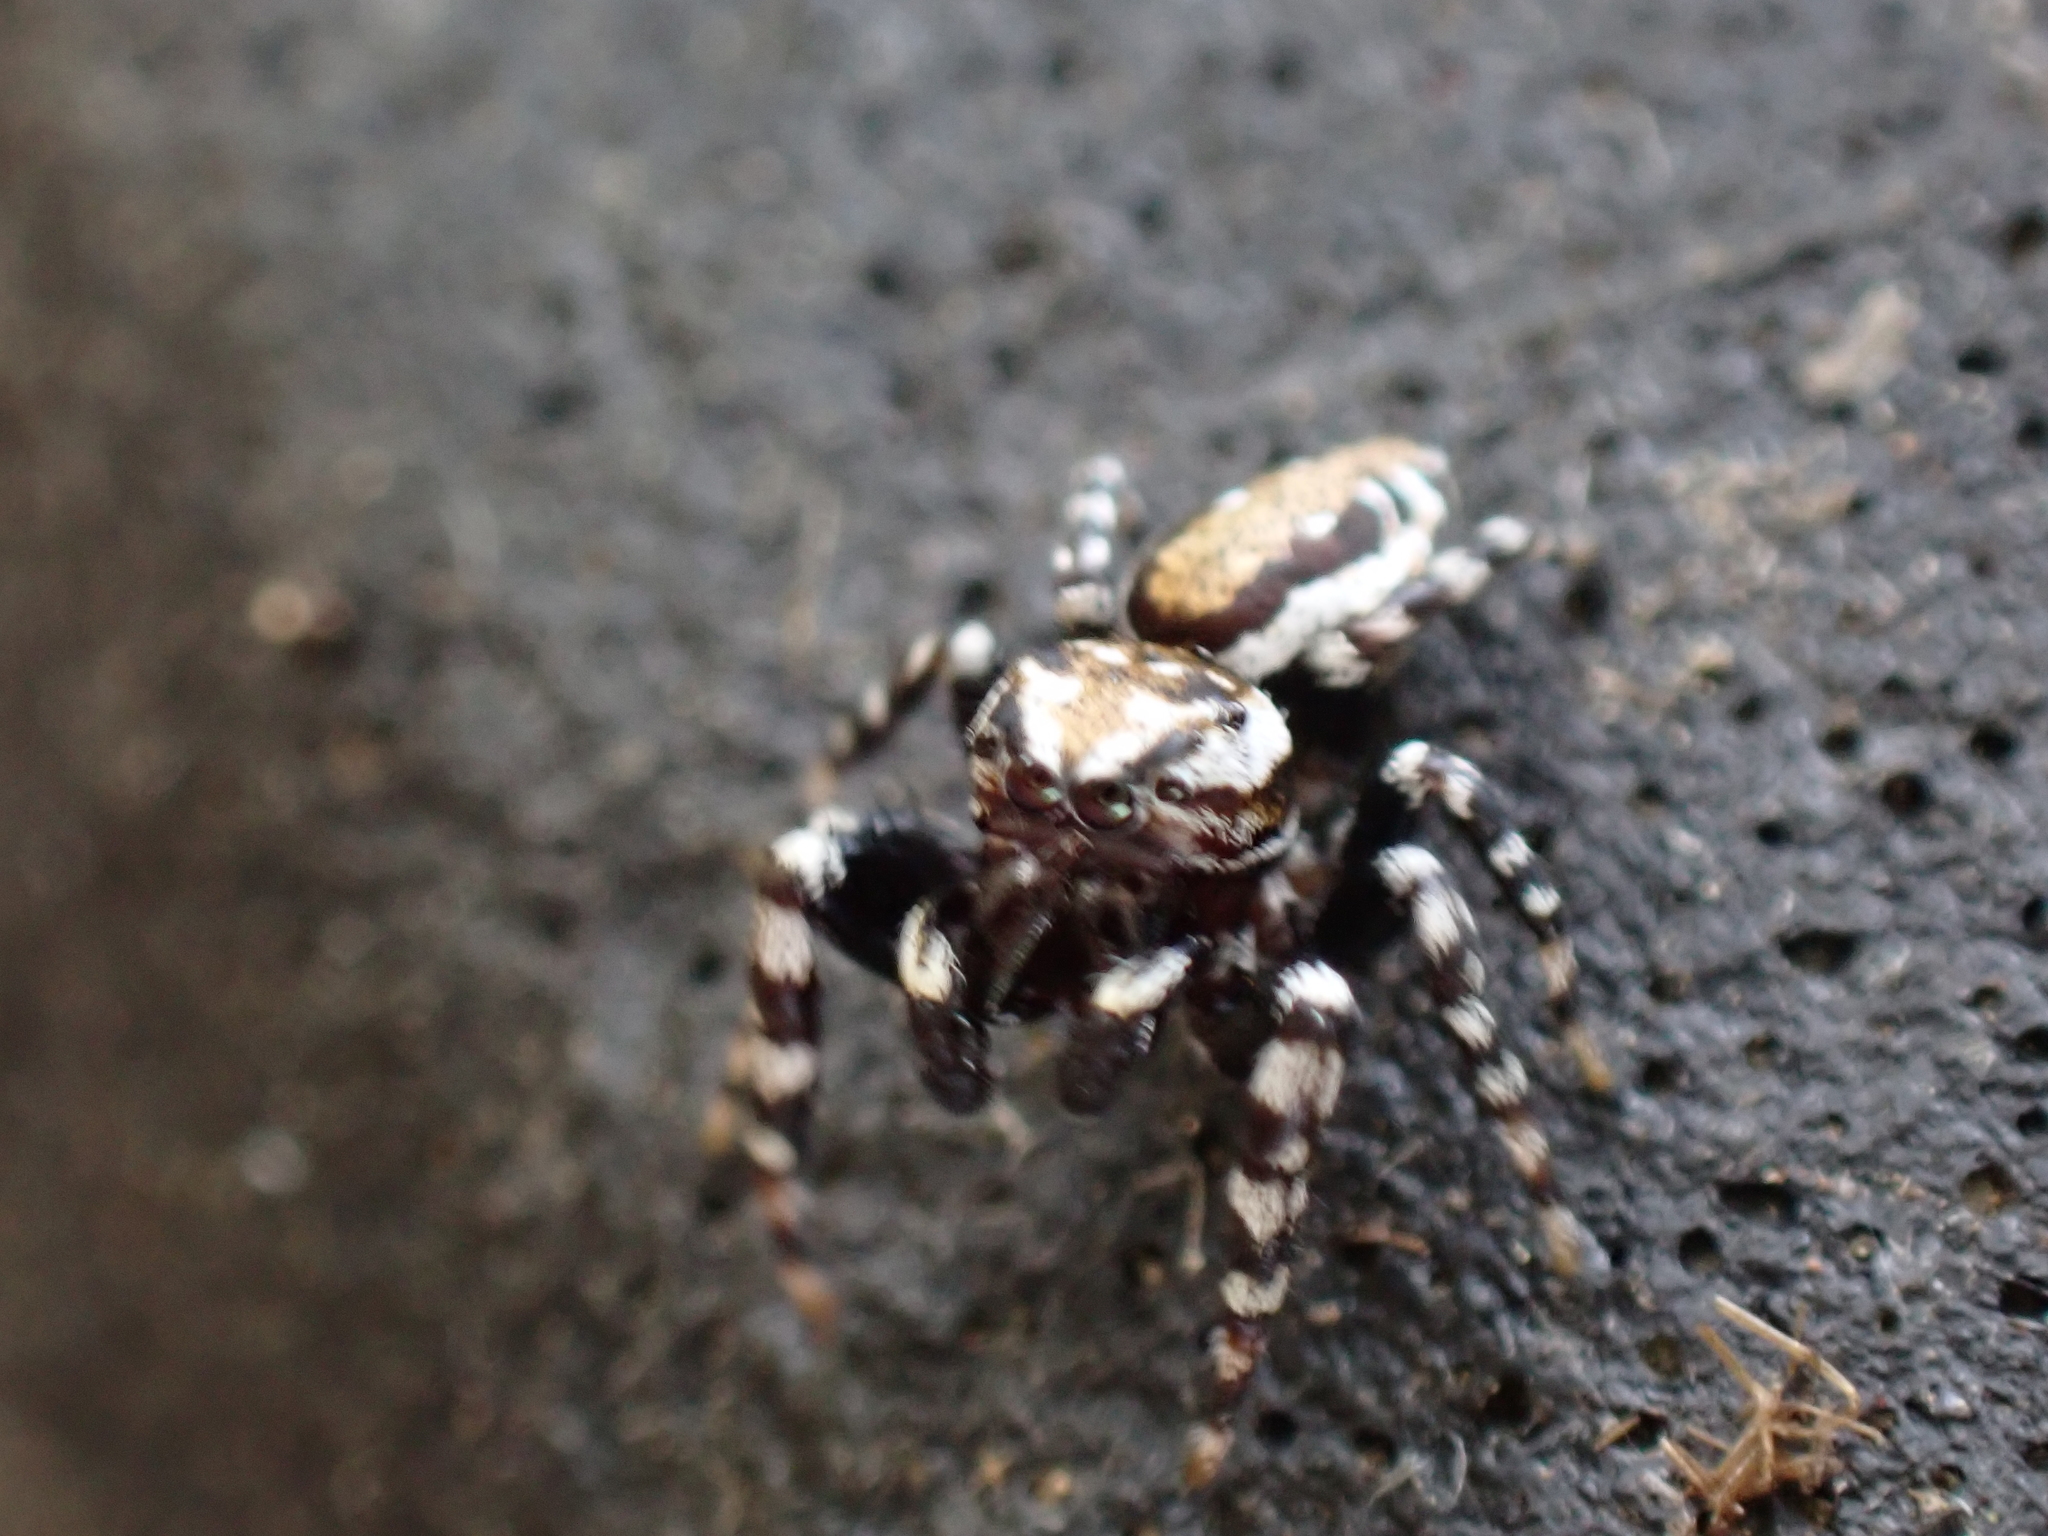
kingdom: Animalia
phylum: Arthropoda
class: Arachnida
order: Araneae
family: Salticidae
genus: Pelegrina
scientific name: Pelegrina galathea
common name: Jumping spiders
